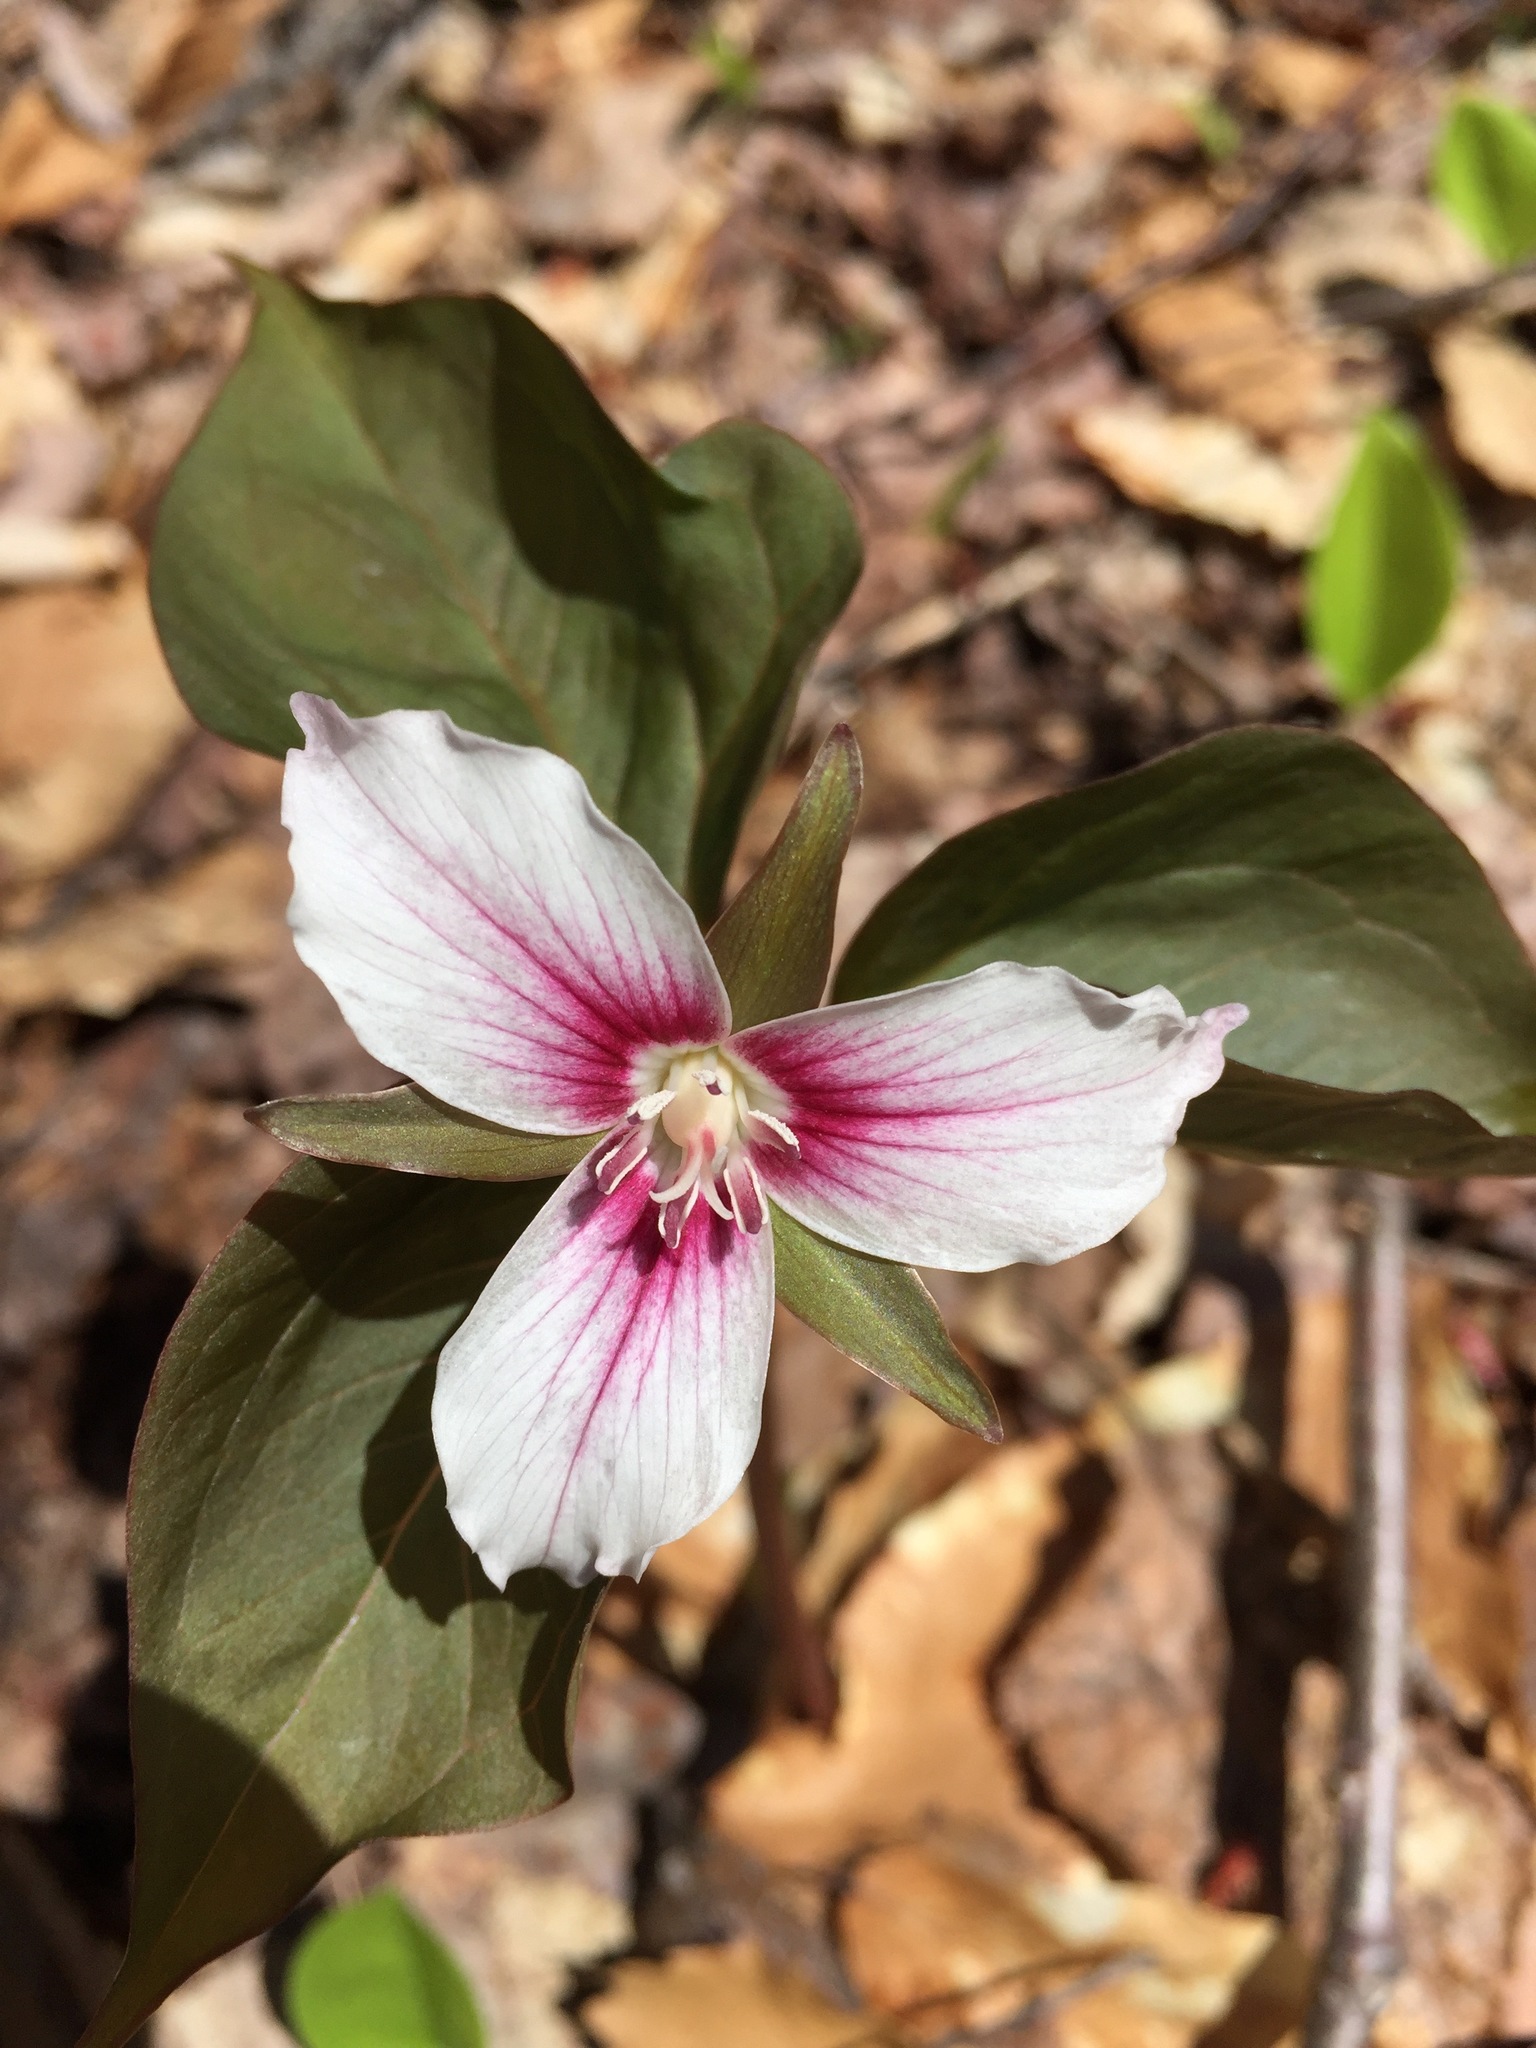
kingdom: Plantae
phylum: Tracheophyta
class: Liliopsida
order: Liliales
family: Melanthiaceae
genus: Trillium
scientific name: Trillium undulatum
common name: Paint trillium
